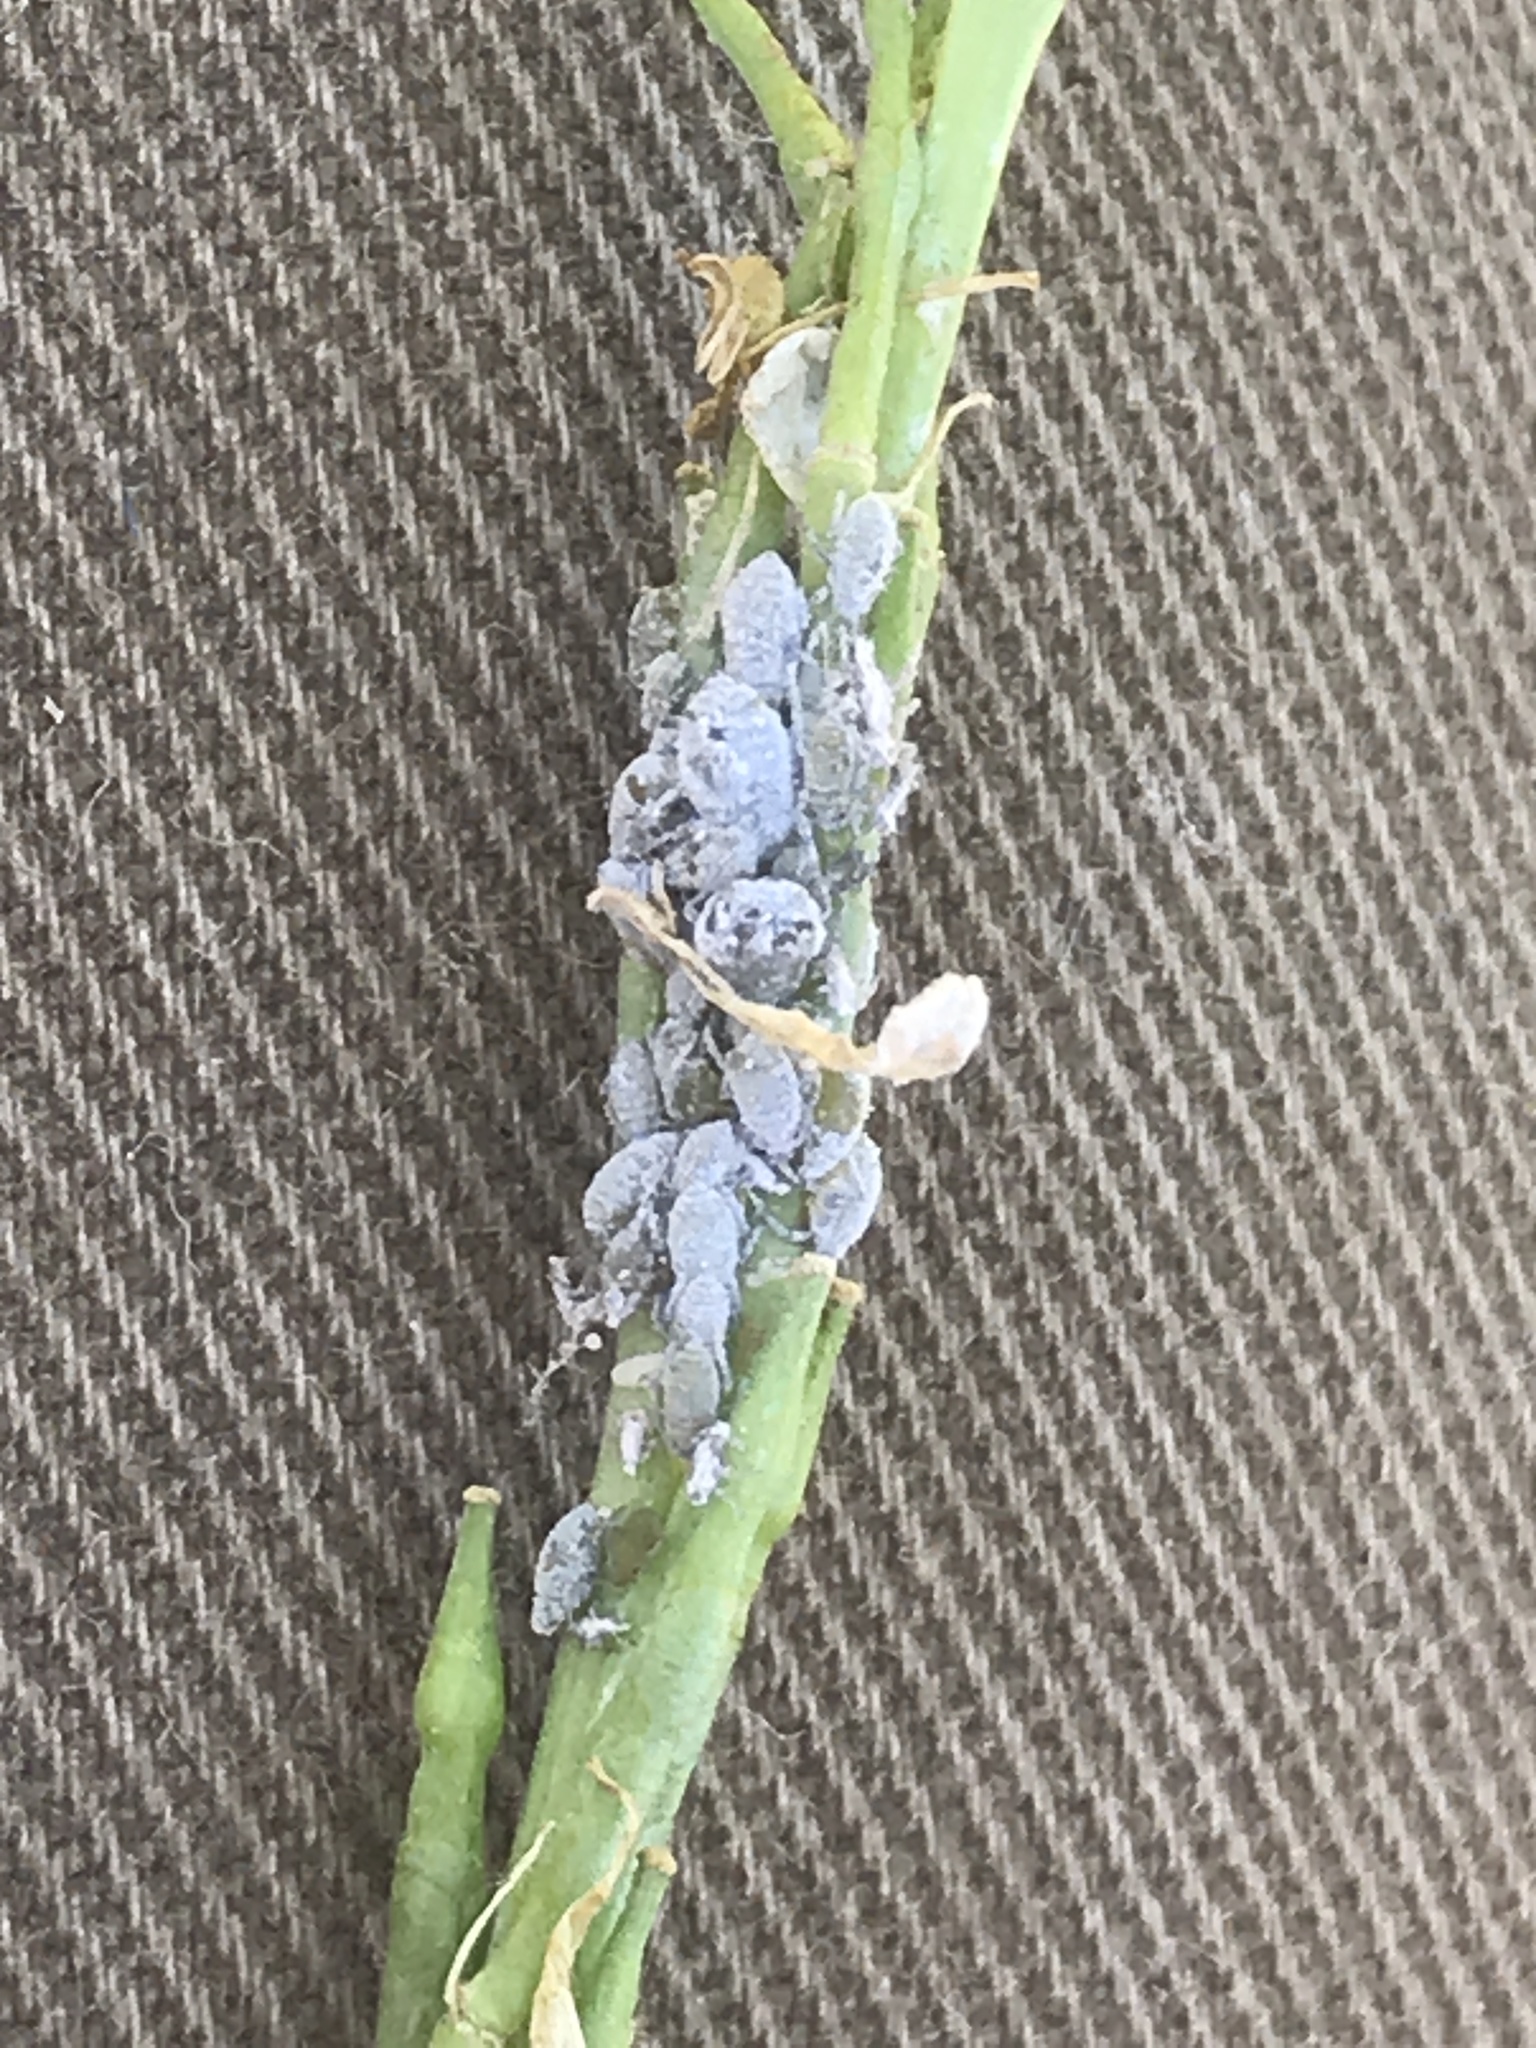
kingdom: Animalia
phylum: Arthropoda
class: Insecta
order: Hemiptera
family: Aphididae
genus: Brevicoryne
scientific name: Brevicoryne brassicae
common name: Cabbage aphid
